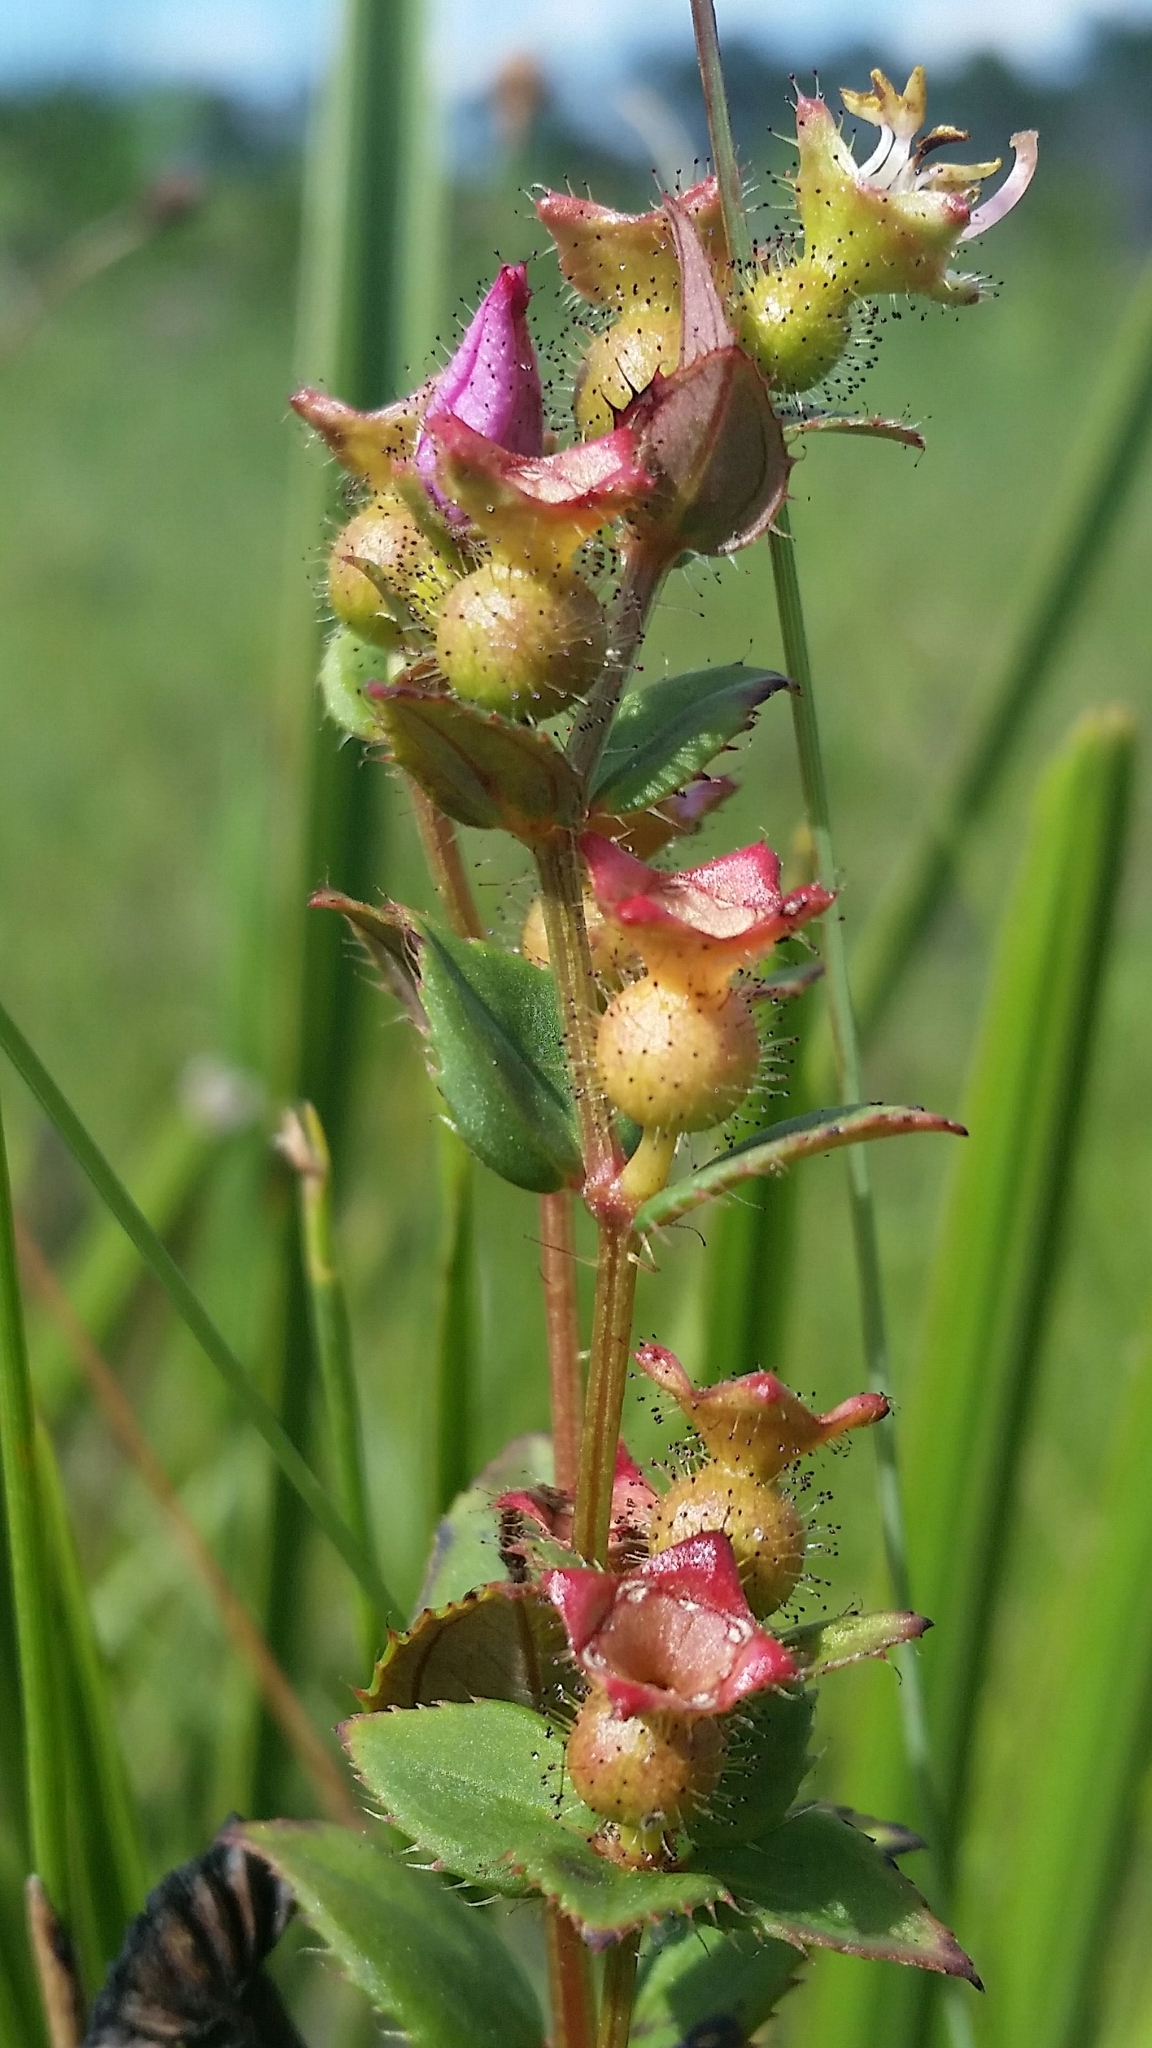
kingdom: Plantae
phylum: Tracheophyta
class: Magnoliopsida
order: Myrtales
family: Melastomataceae
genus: Rhexia
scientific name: Rhexia nuttallii
